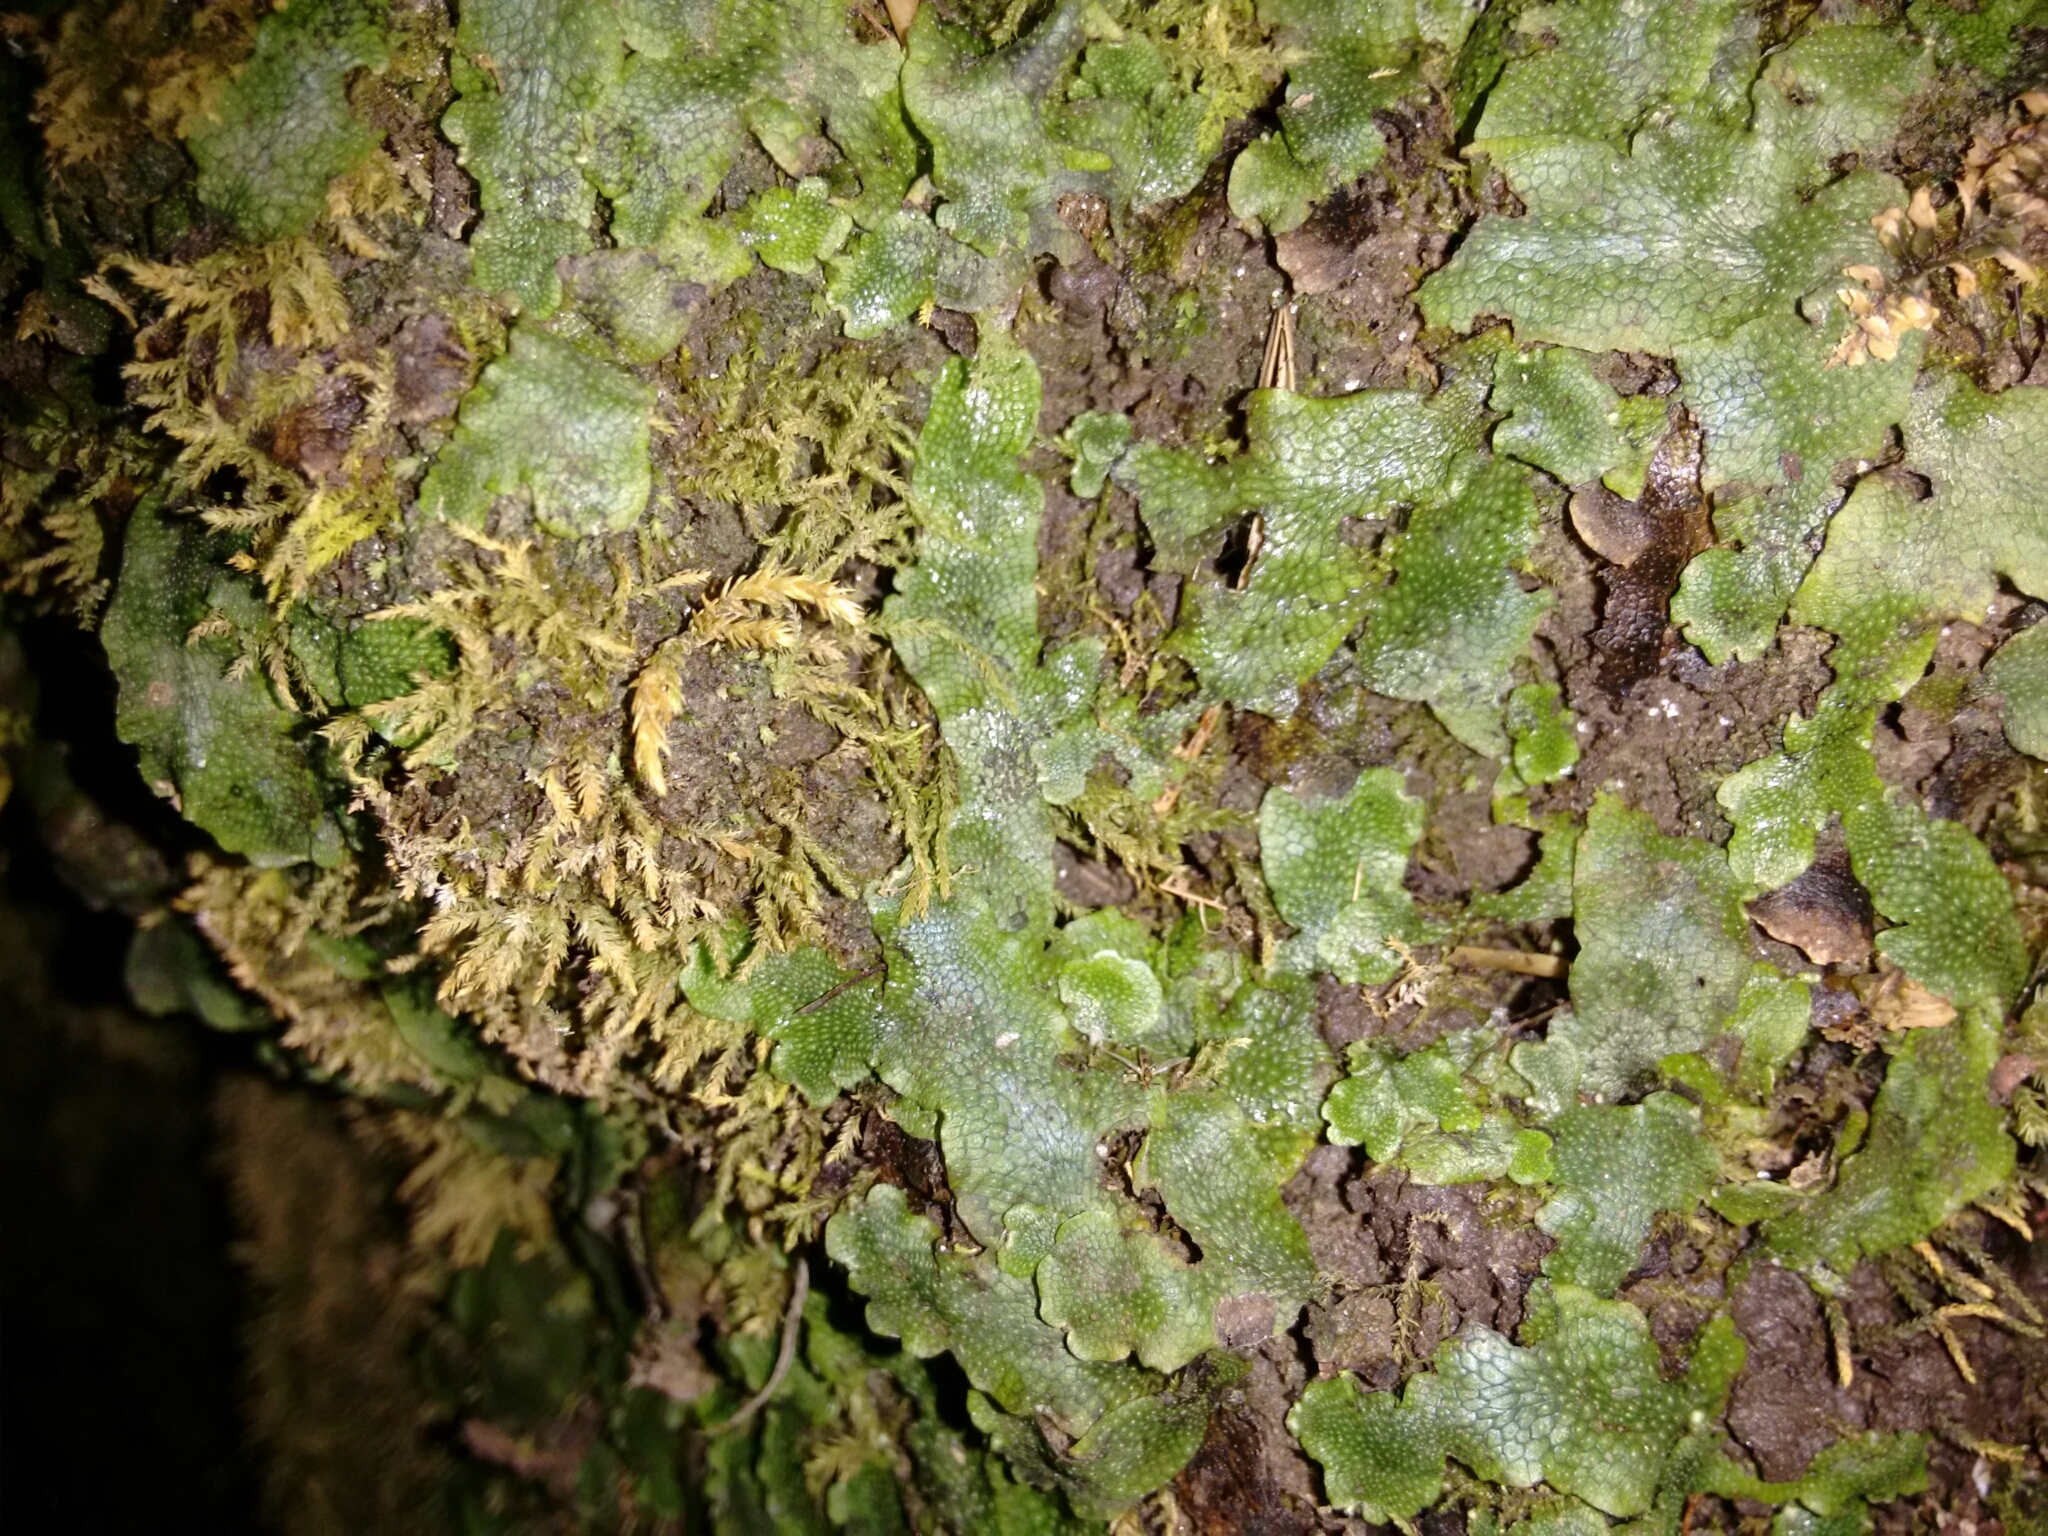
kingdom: Plantae
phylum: Marchantiophyta
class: Marchantiopsida
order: Marchantiales
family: Conocephalaceae
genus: Conocephalum
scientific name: Conocephalum salebrosum
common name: Cat-tongue liverwort
